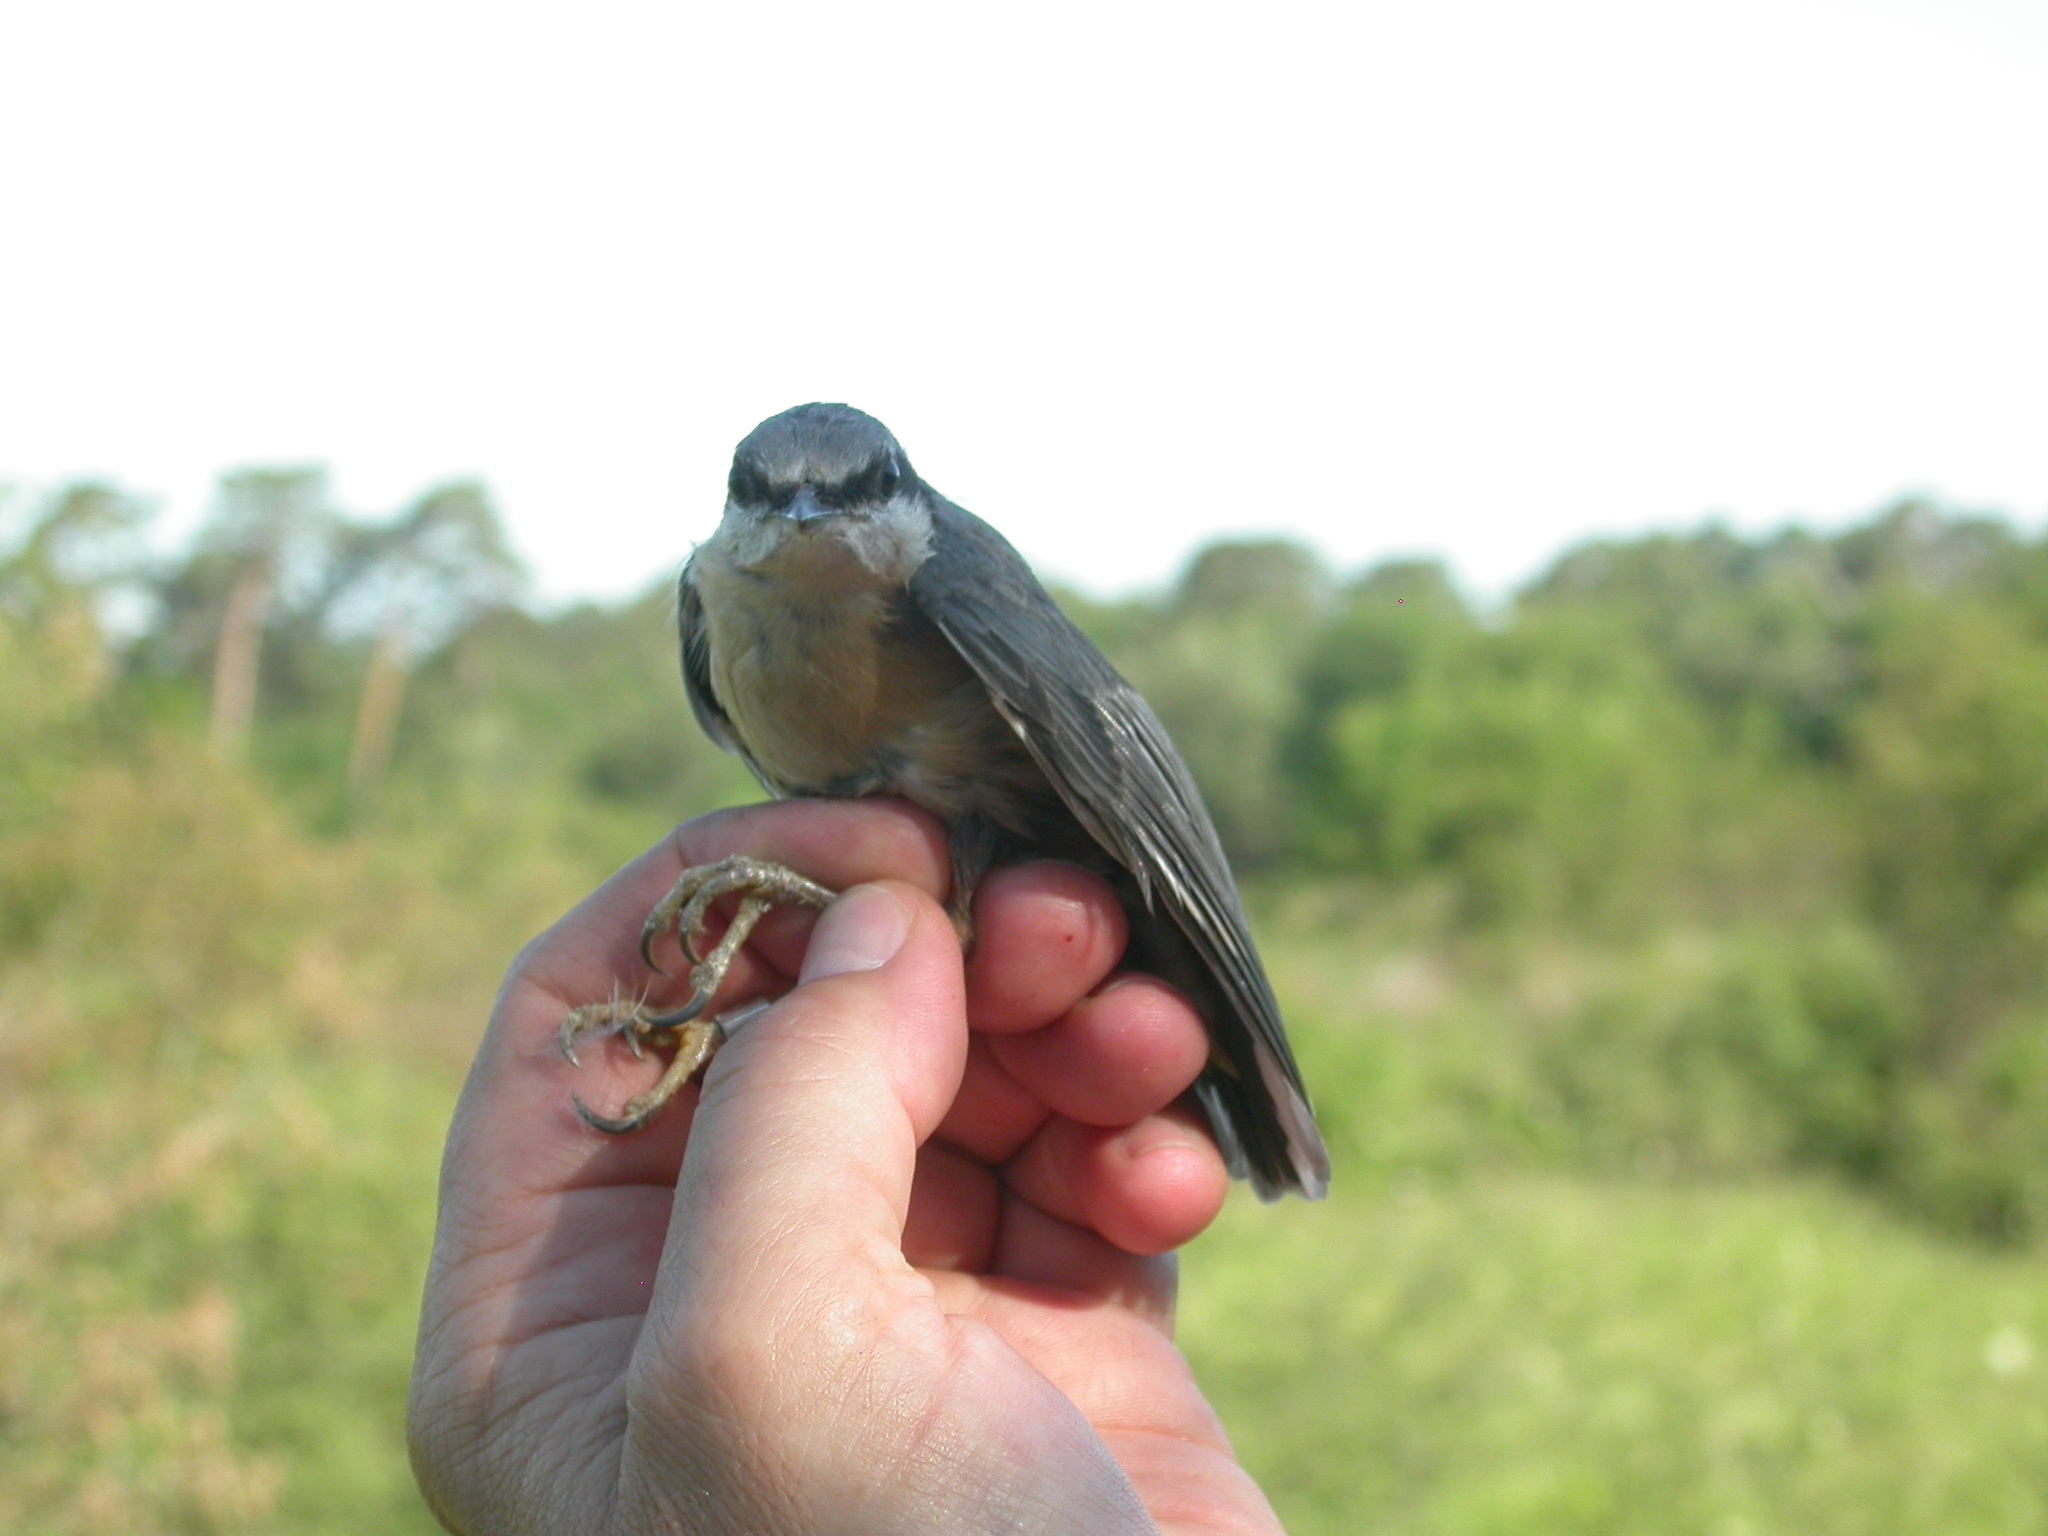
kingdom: Animalia
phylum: Chordata
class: Aves
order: Passeriformes
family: Sittidae
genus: Sitta
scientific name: Sitta europaea
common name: Eurasian nuthatch
